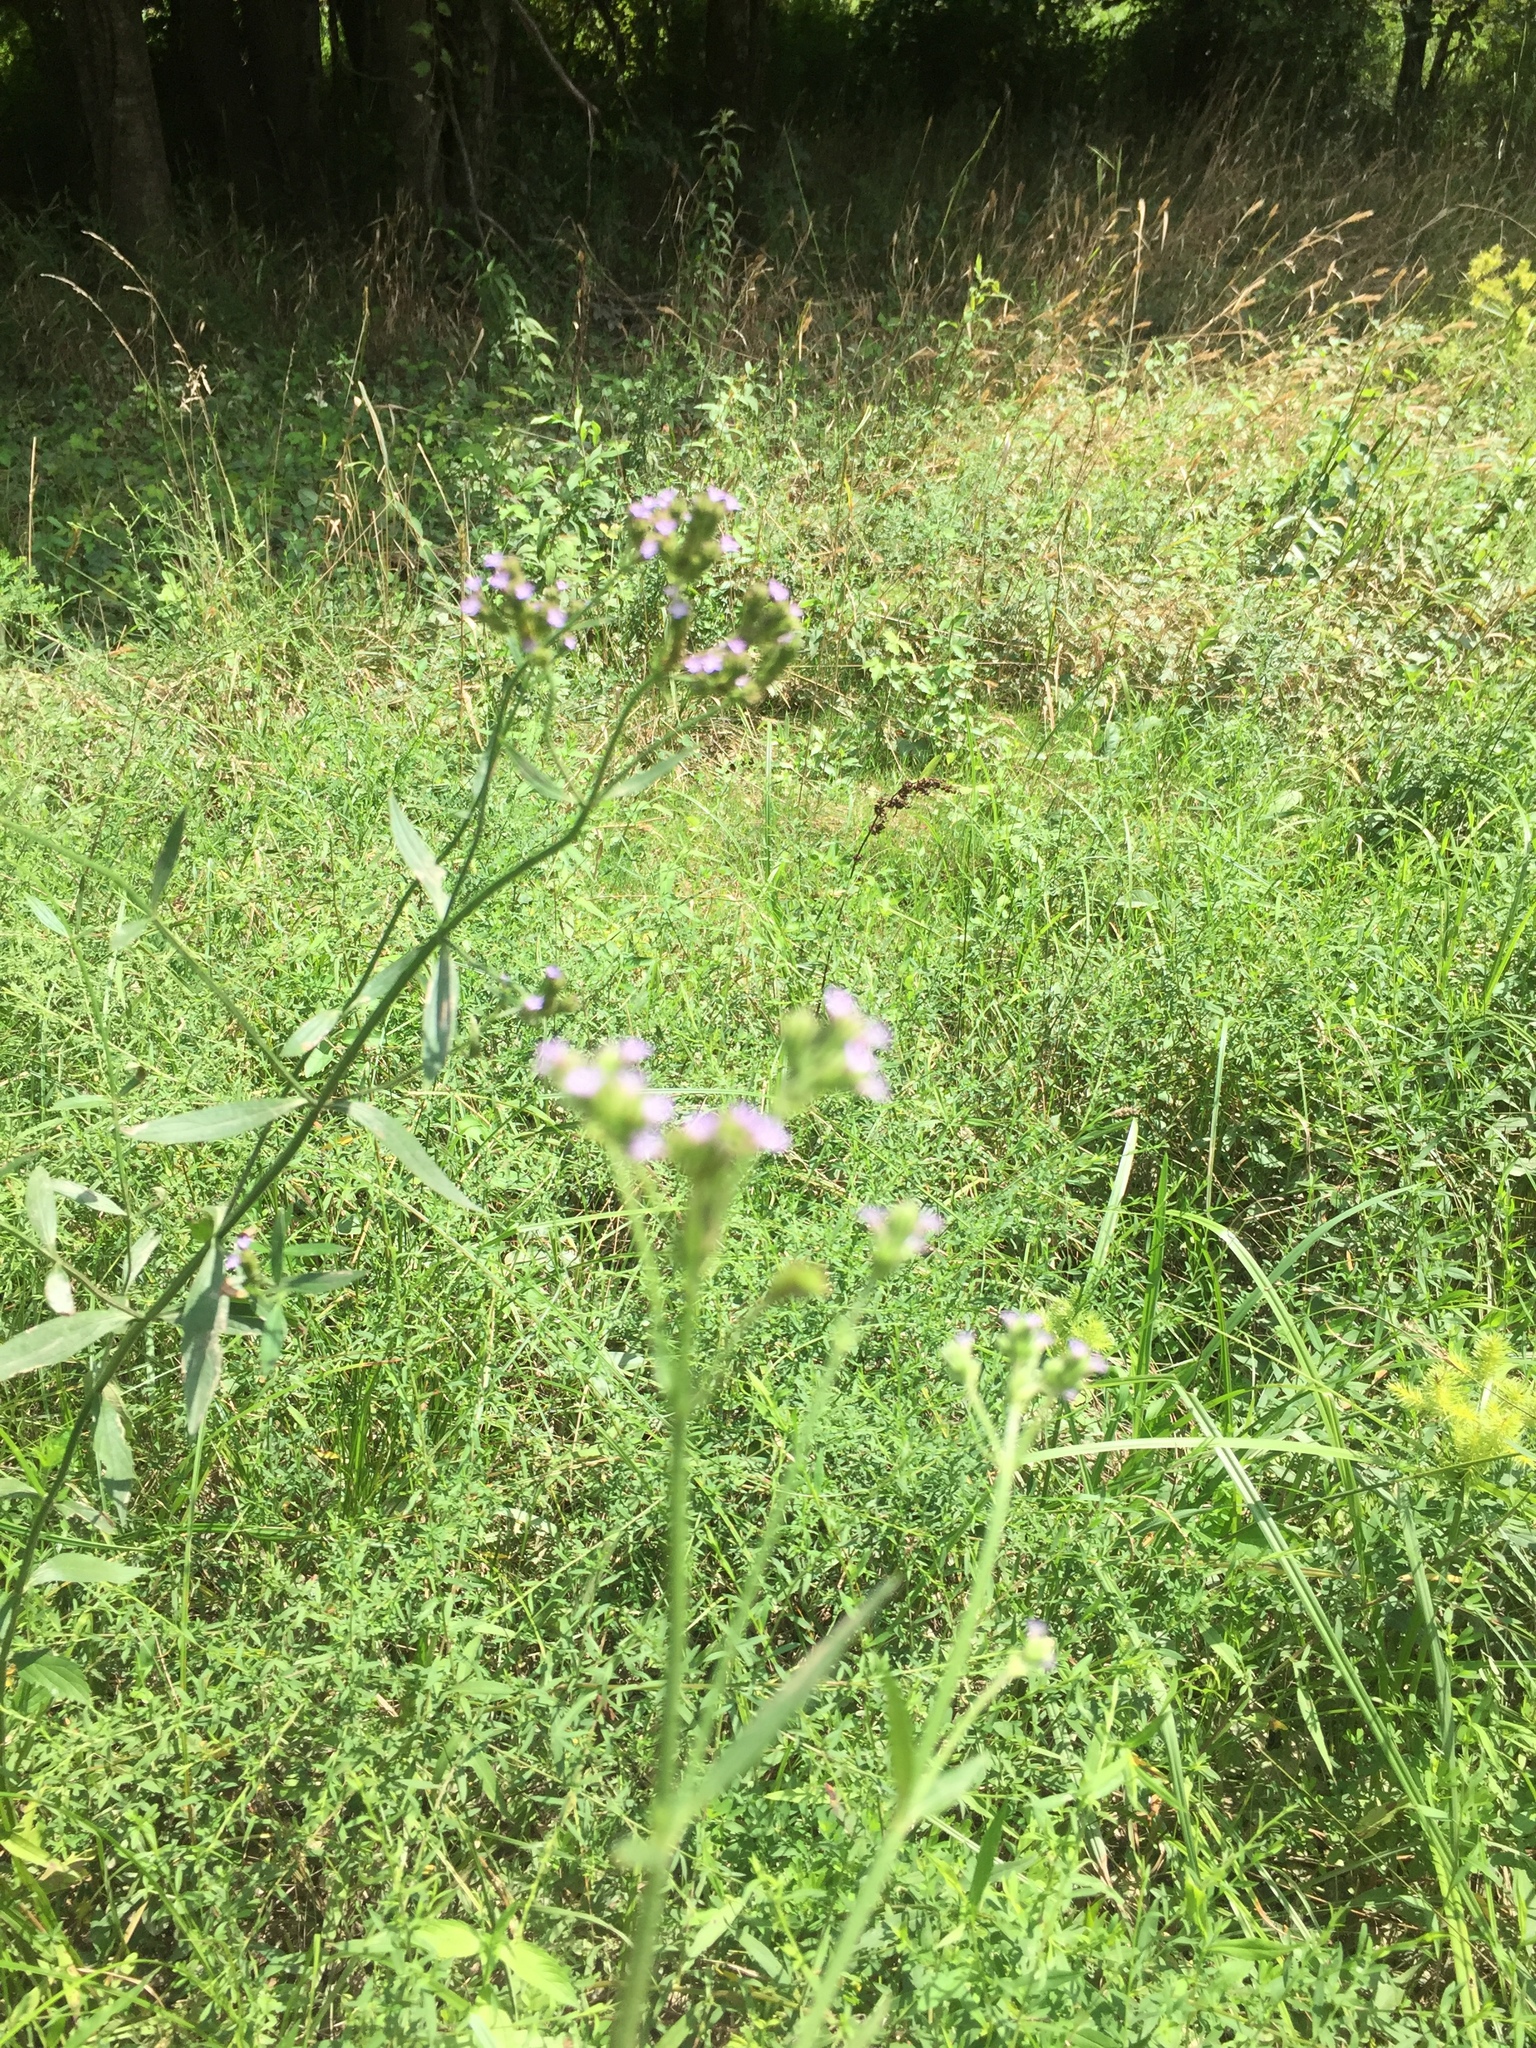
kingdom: Plantae
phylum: Tracheophyta
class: Magnoliopsida
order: Lamiales
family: Verbenaceae
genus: Verbena
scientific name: Verbena brasiliensis
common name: Brazilian vervain
